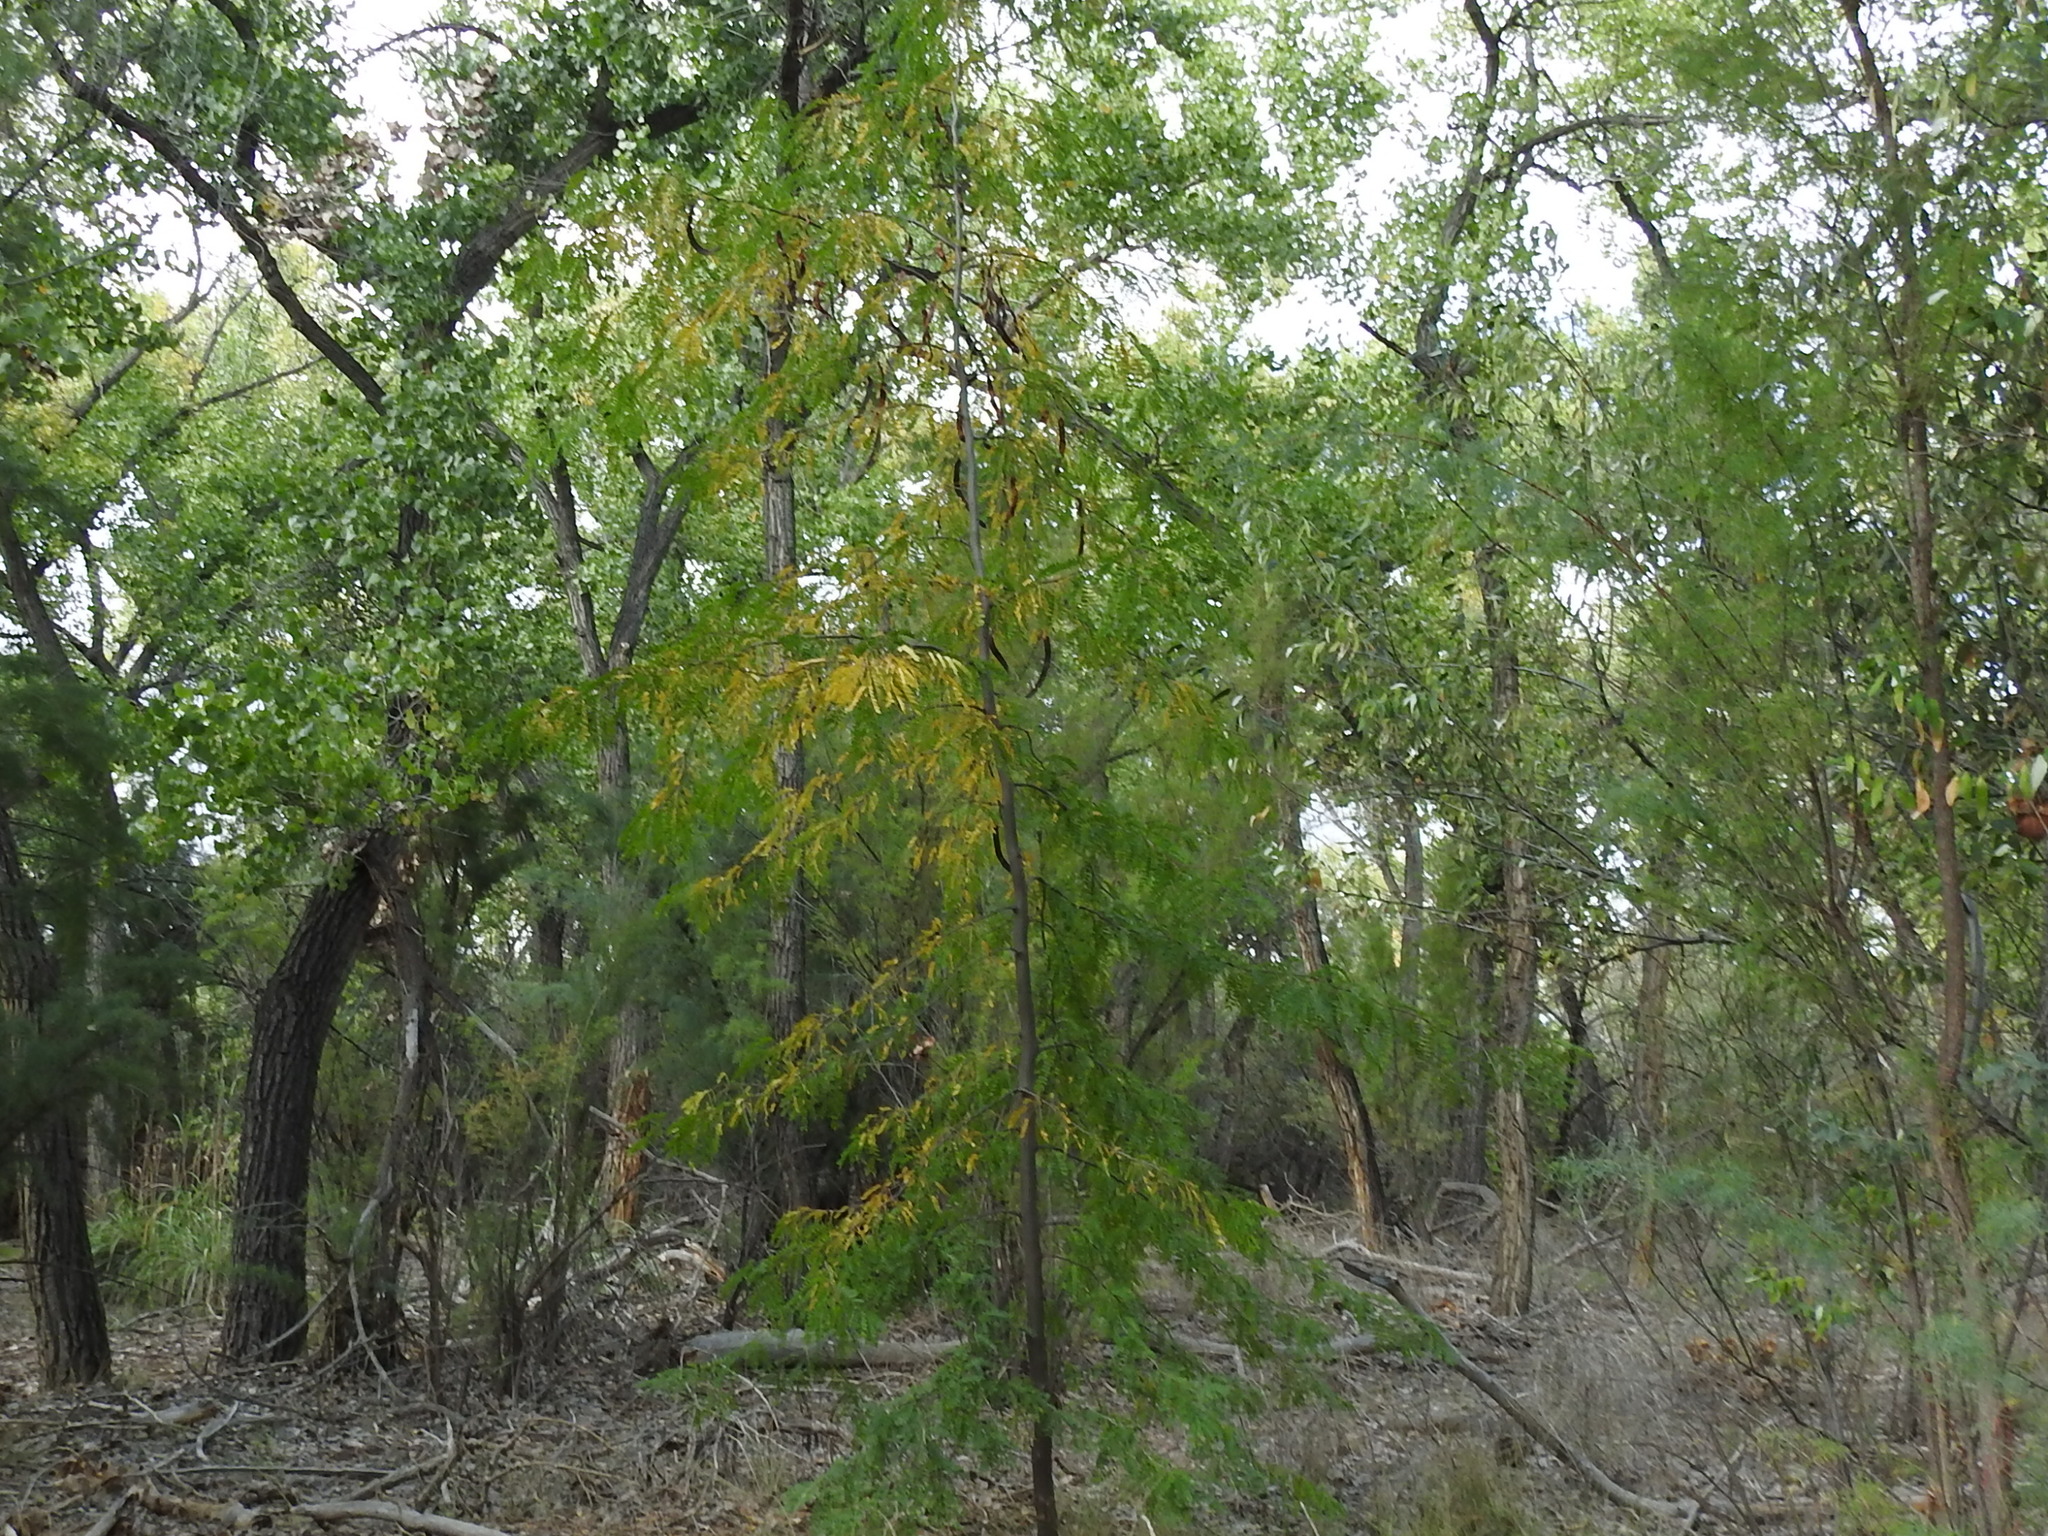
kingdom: Plantae
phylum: Tracheophyta
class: Magnoliopsida
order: Fabales
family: Fabaceae
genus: Gleditsia
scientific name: Gleditsia triacanthos
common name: Common honeylocust
